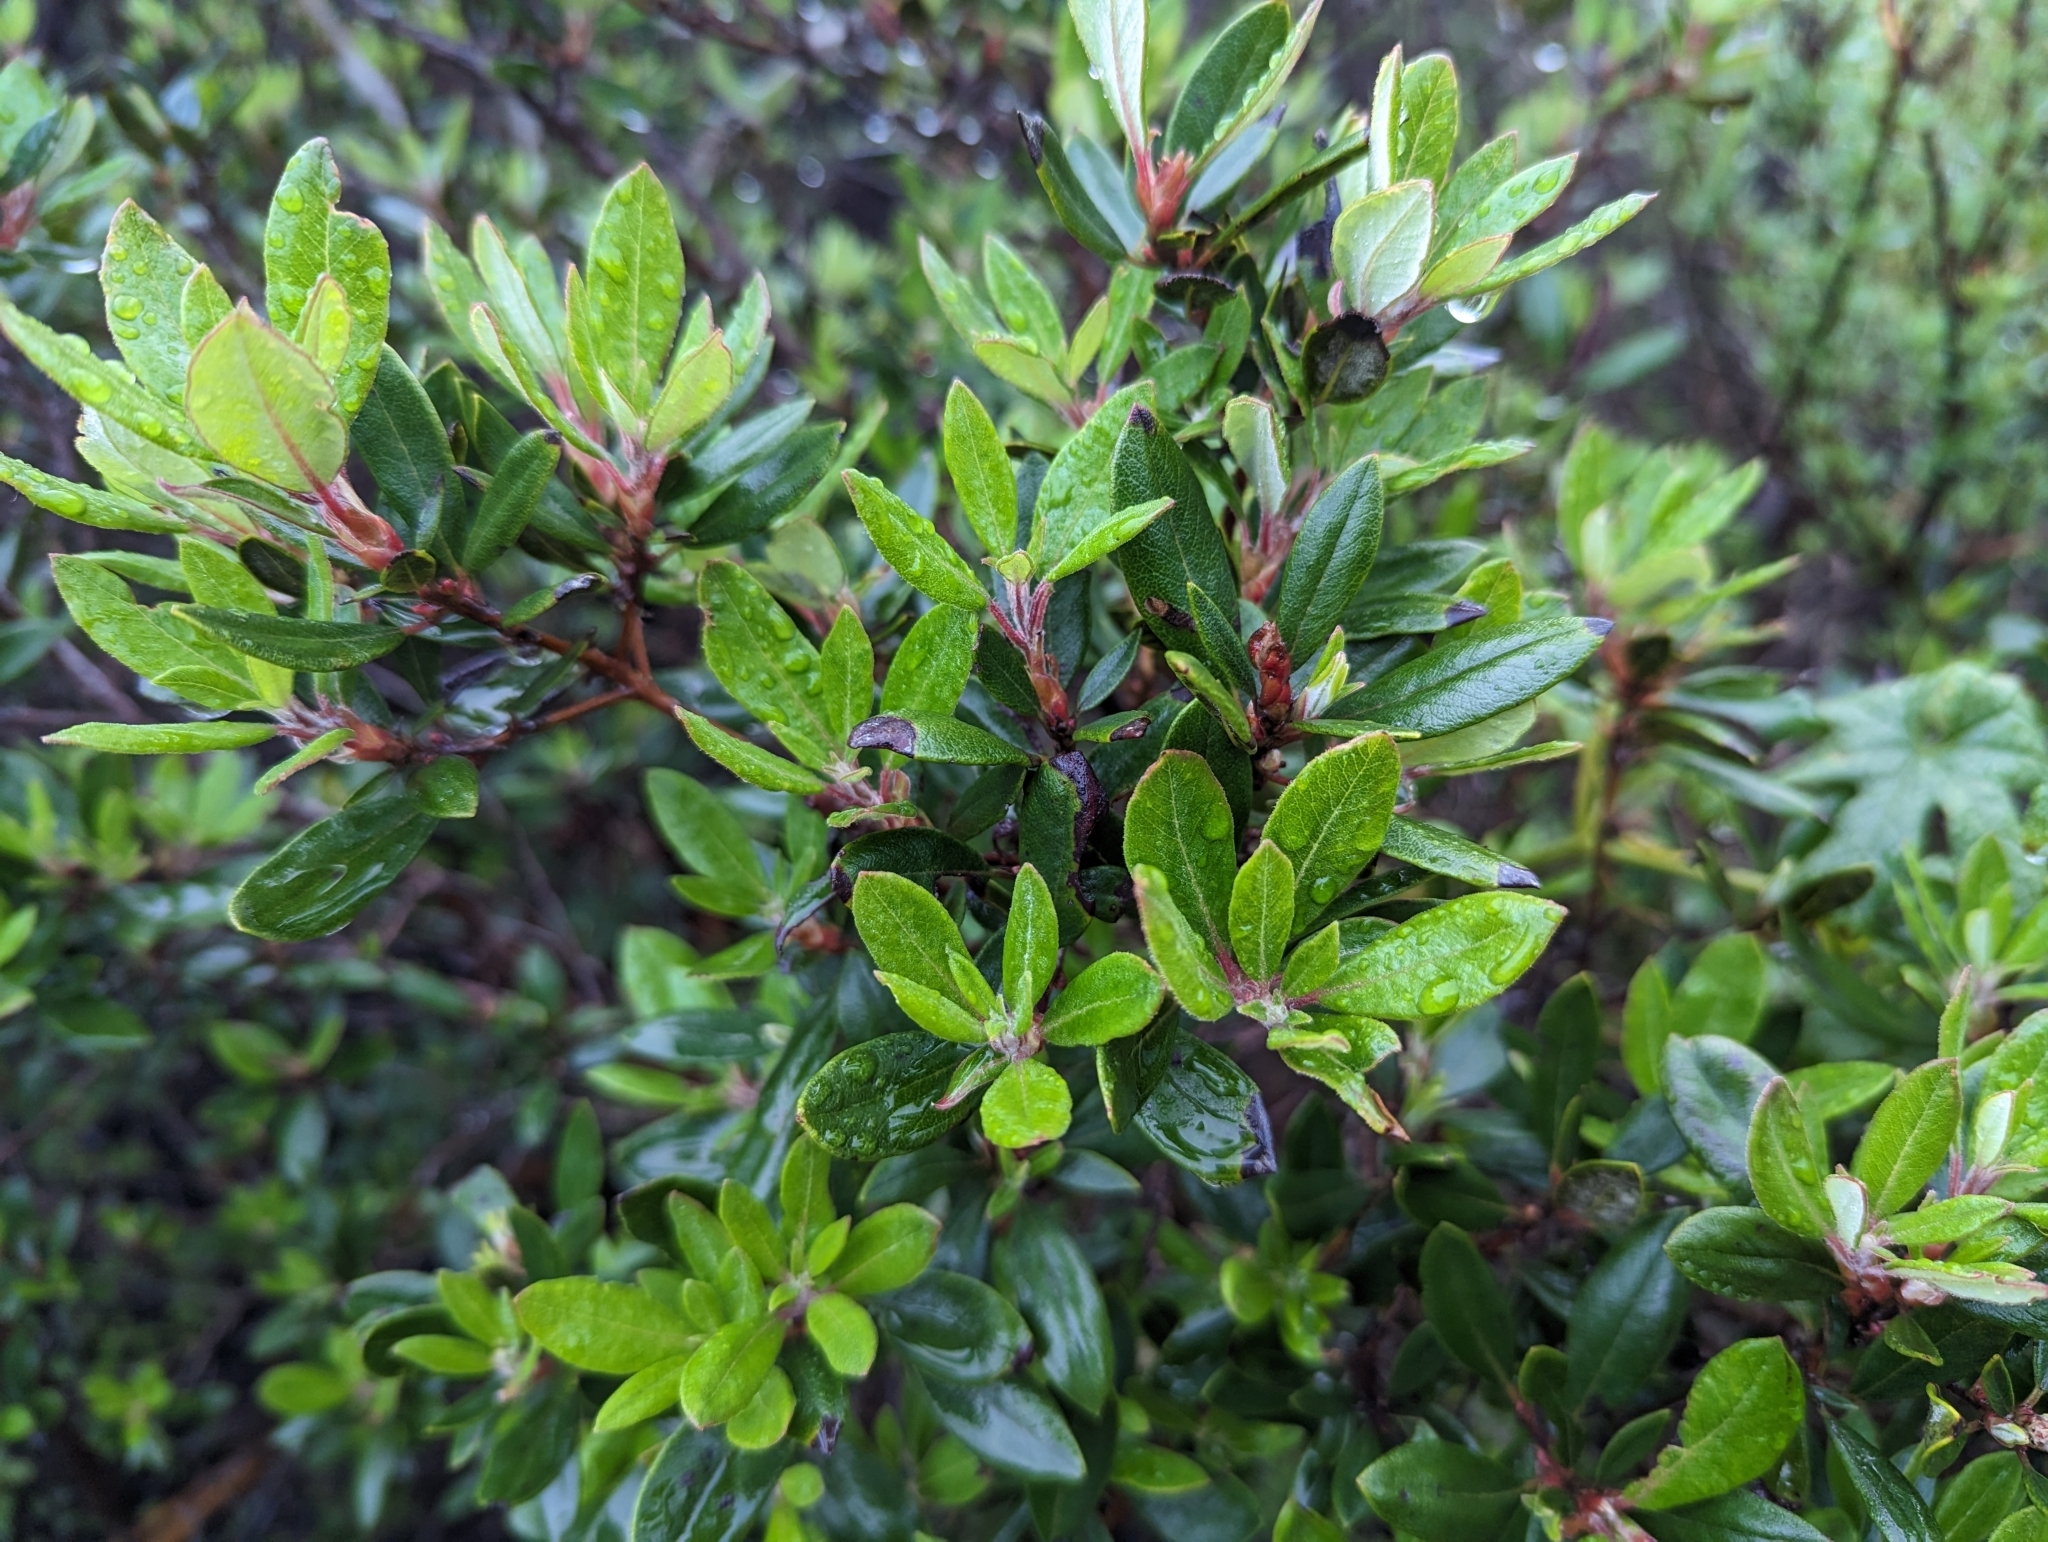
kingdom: Plantae
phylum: Tracheophyta
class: Magnoliopsida
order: Ericales
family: Ericaceae
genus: Arctostaphylos
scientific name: Arctostaphylos bicolor
